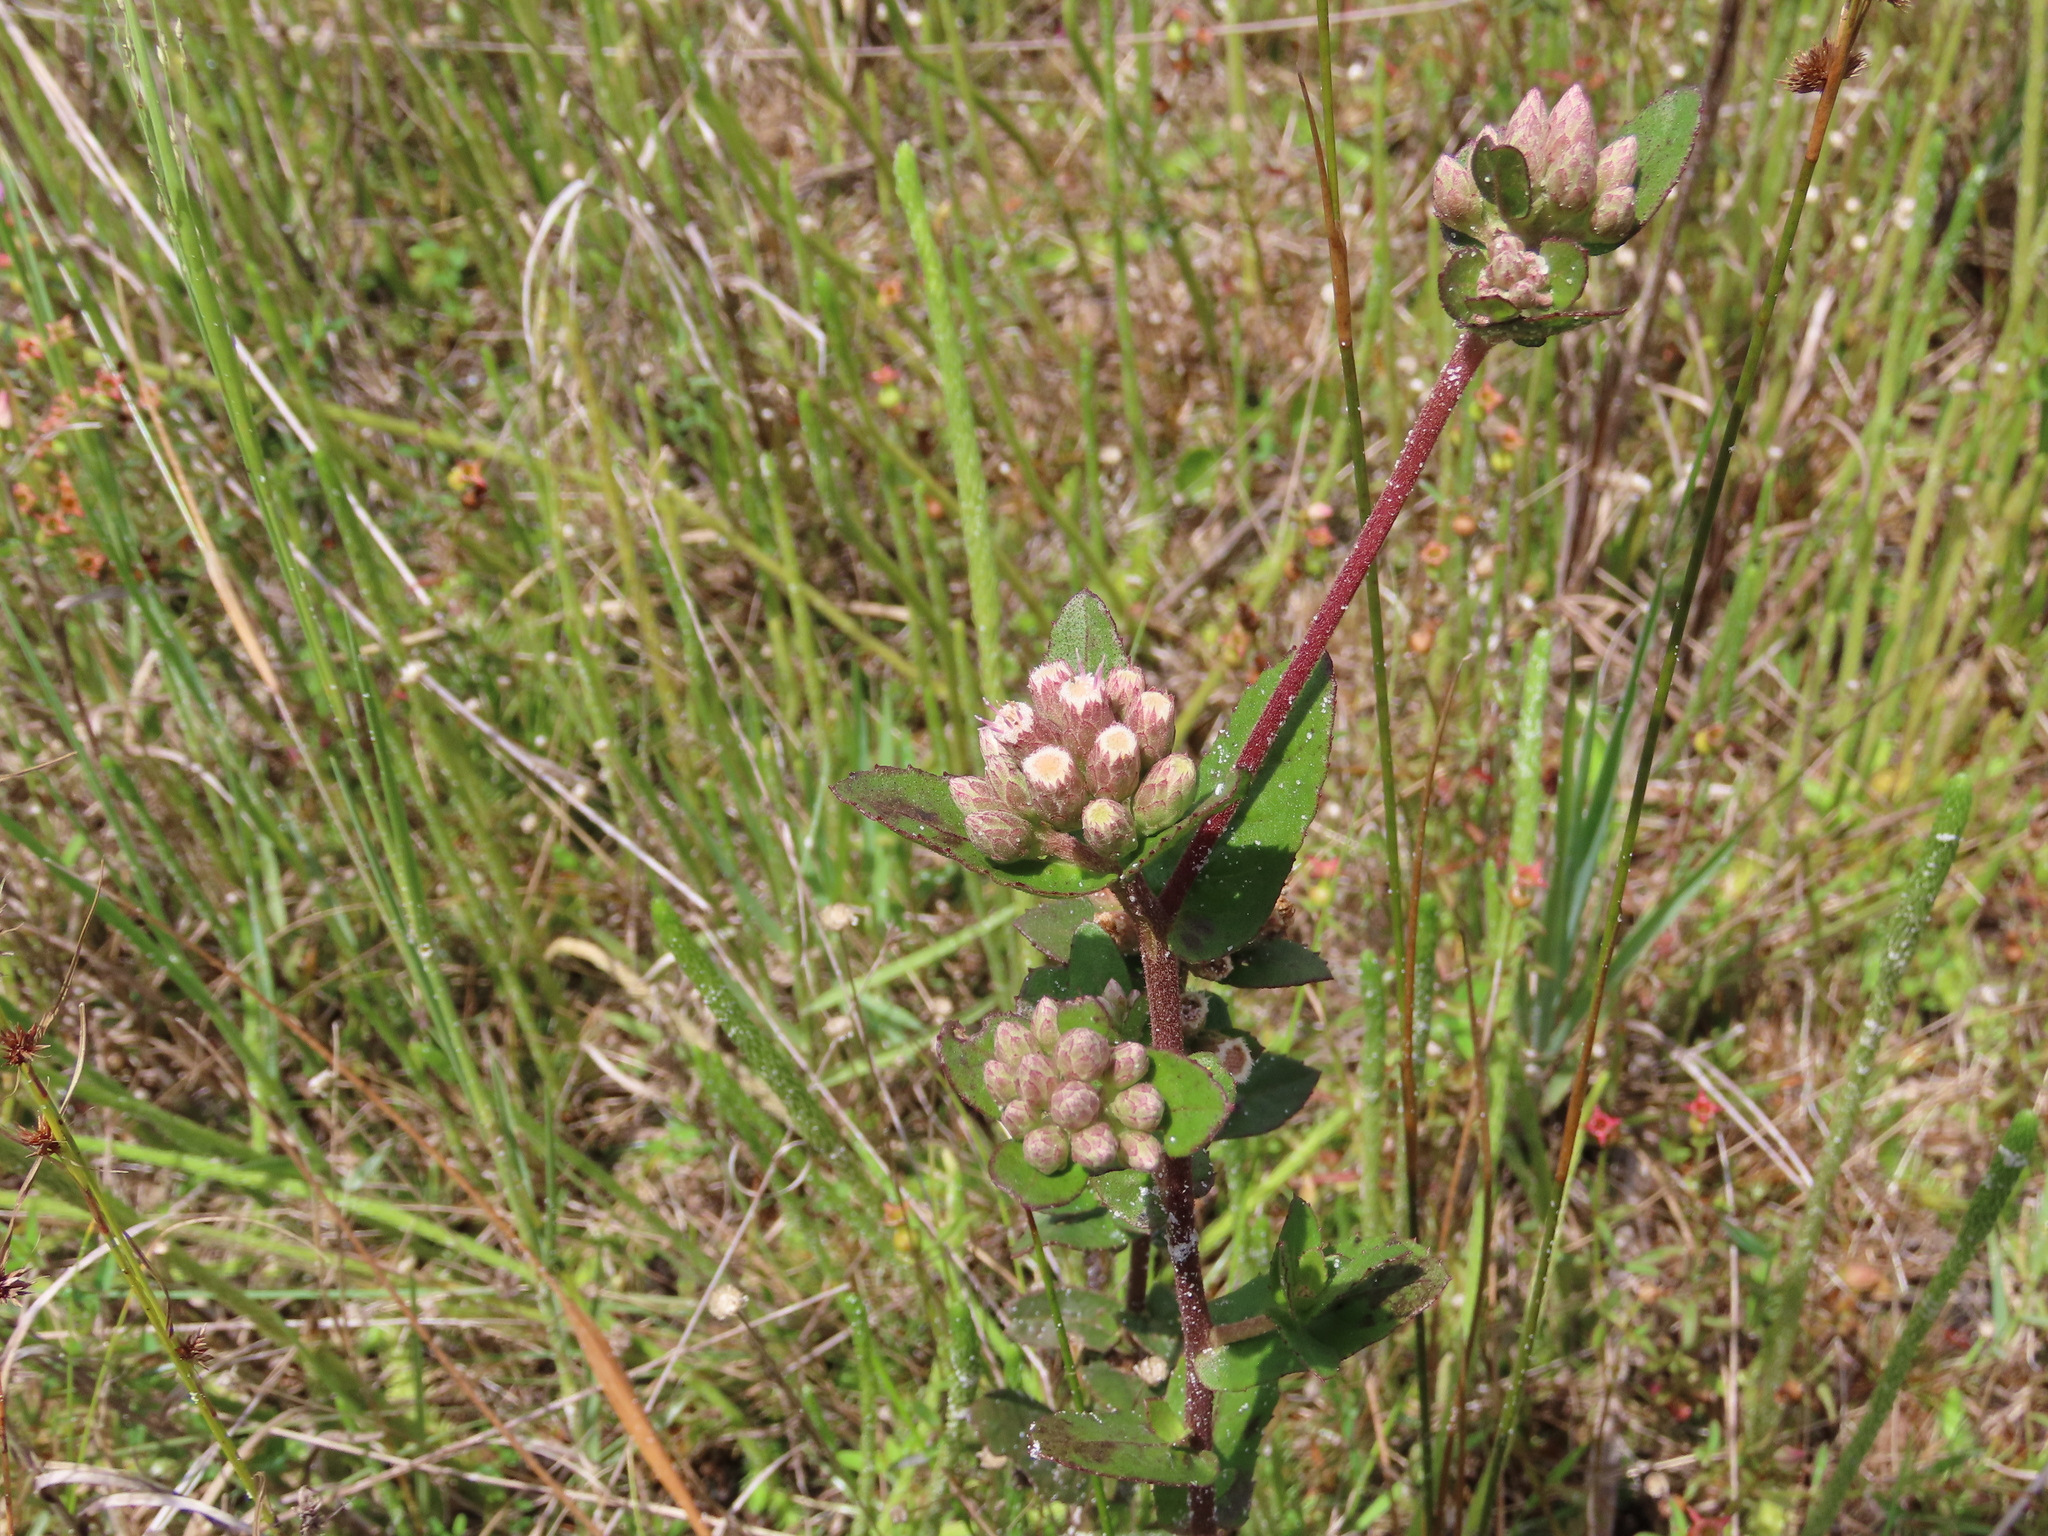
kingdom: Plantae
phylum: Tracheophyta
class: Magnoliopsida
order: Asterales
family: Asteraceae
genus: Pluchea
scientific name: Pluchea foetida
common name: Stinking camphorweed
